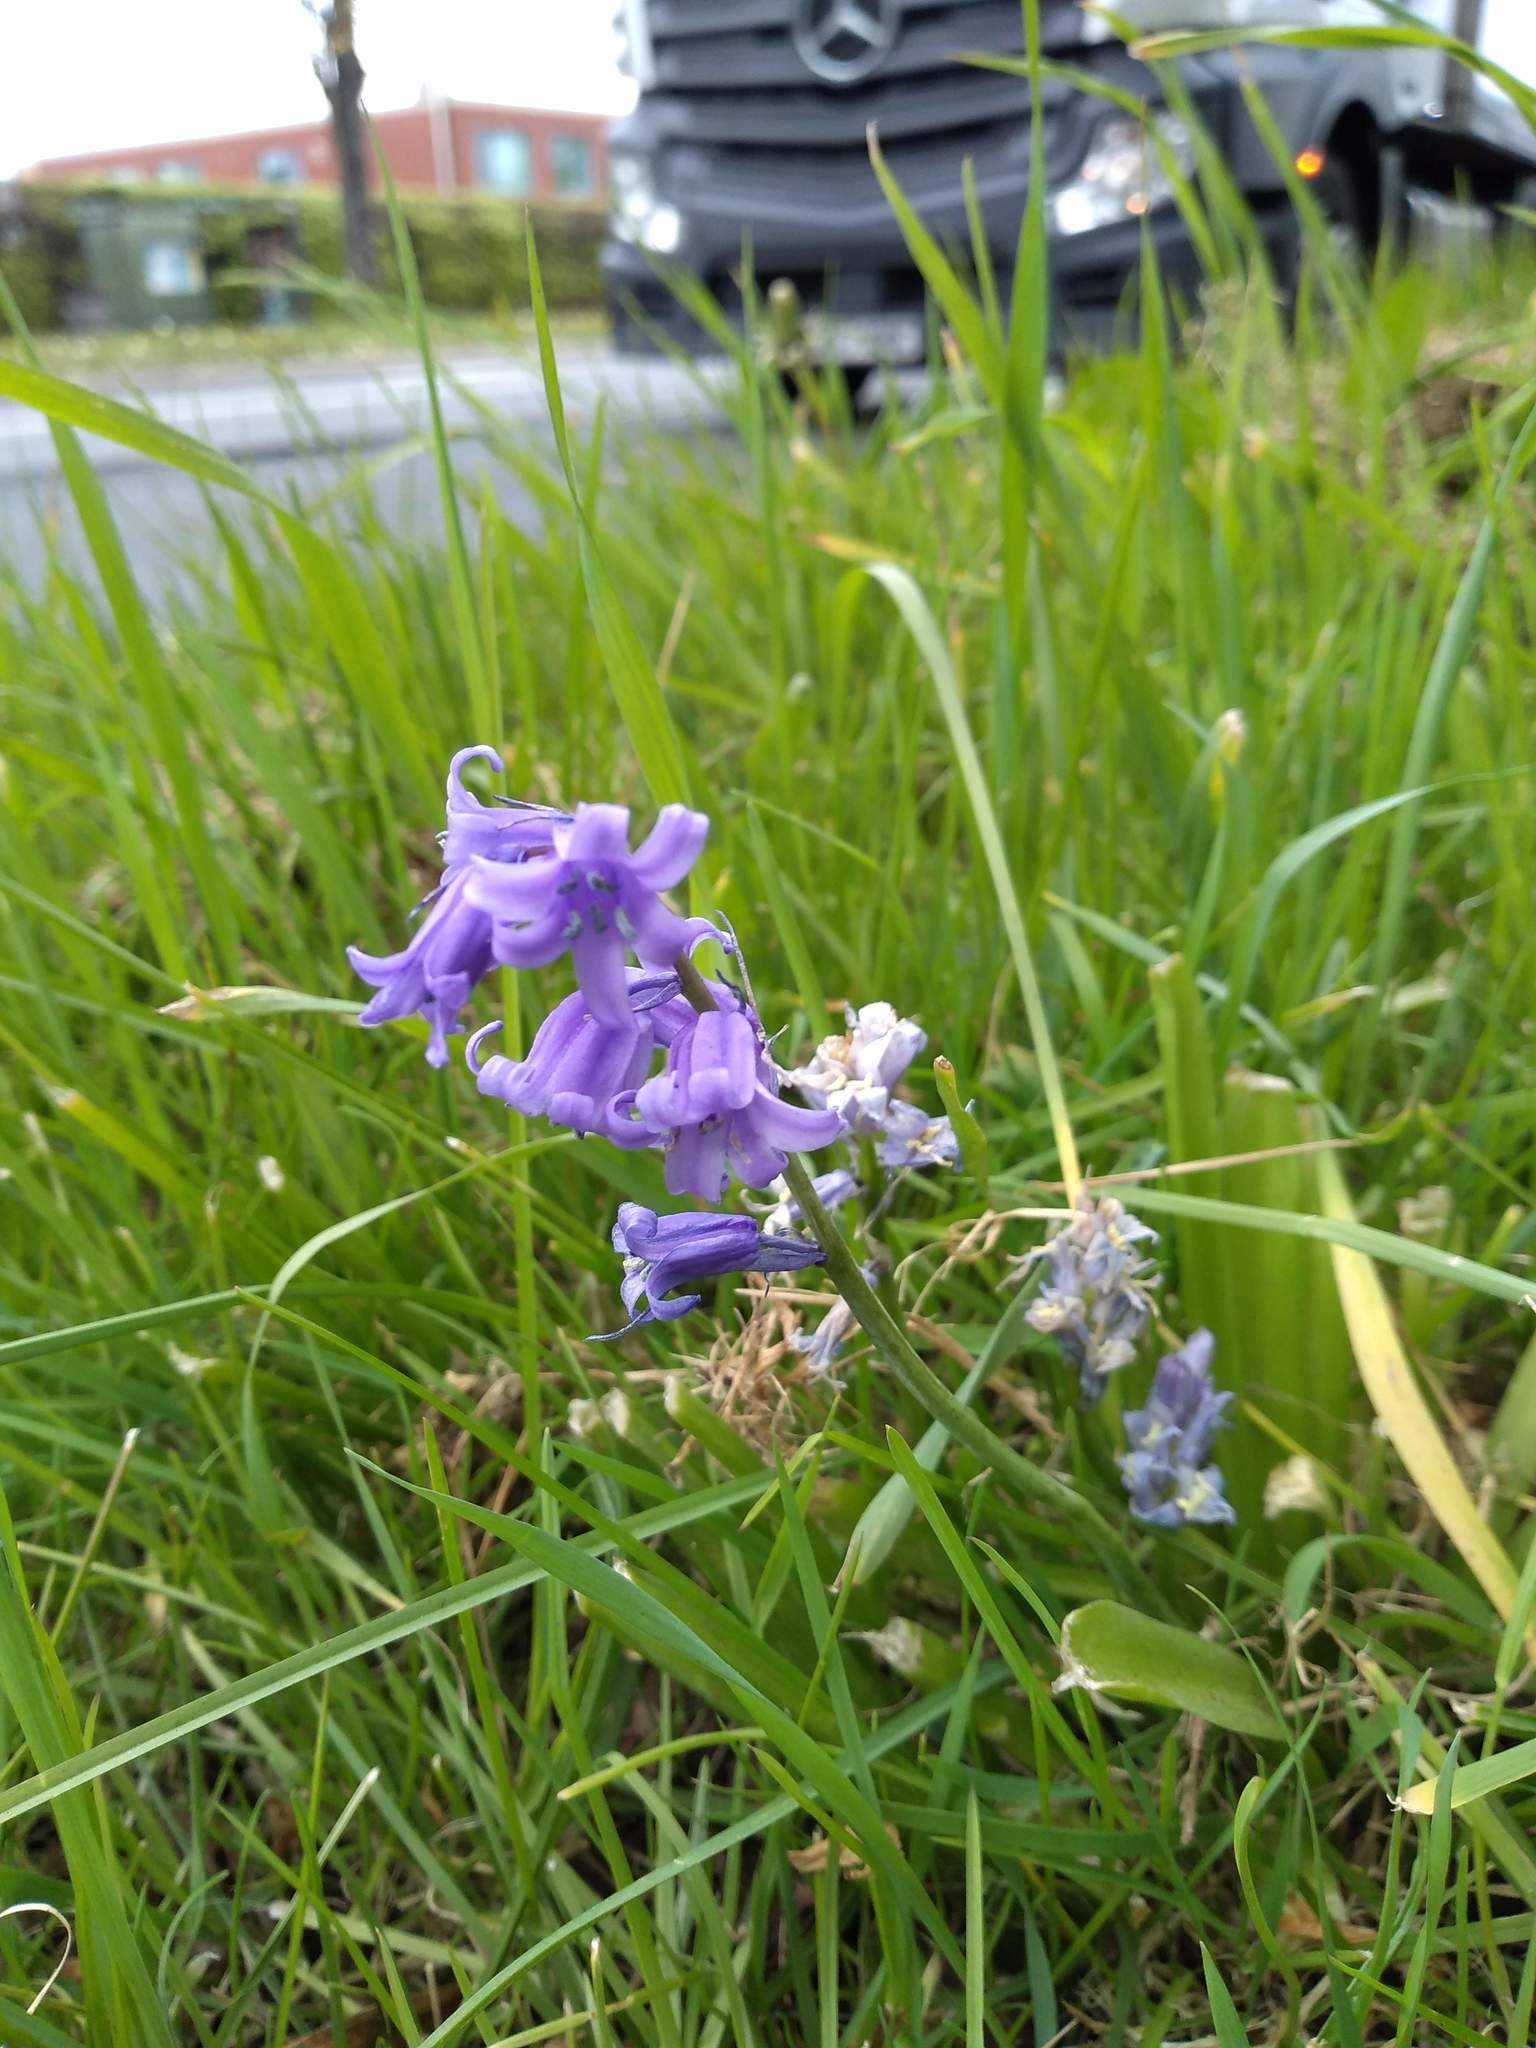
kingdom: Plantae
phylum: Tracheophyta
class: Liliopsida
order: Asparagales
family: Asparagaceae
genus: Hyacinthoides
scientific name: Hyacinthoides massartiana
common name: Hyacinthoides
